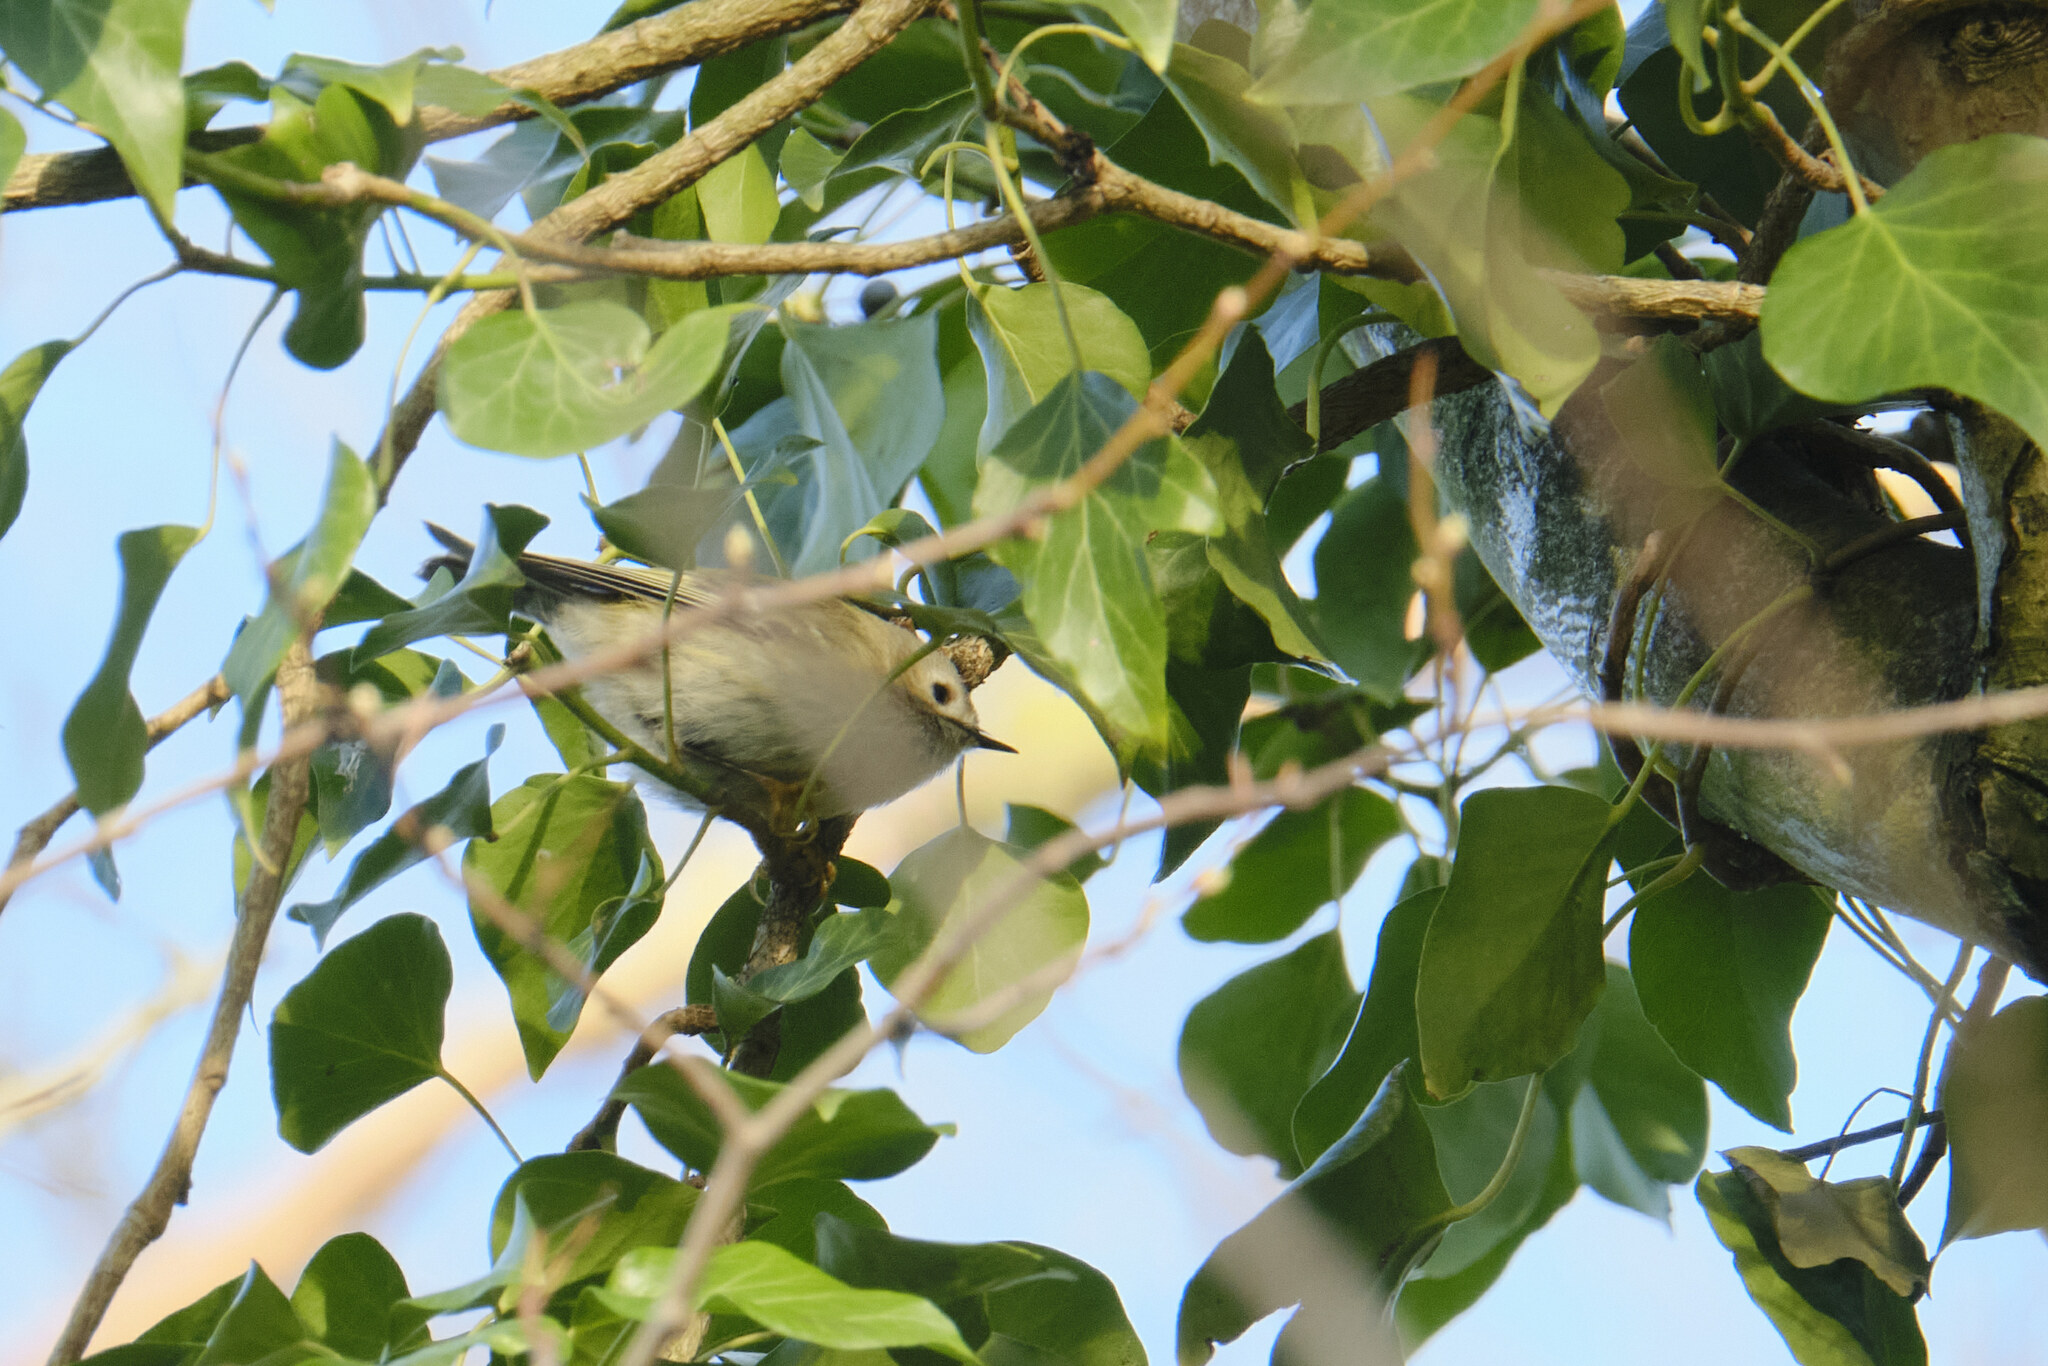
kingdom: Animalia
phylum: Chordata
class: Aves
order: Passeriformes
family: Regulidae
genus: Regulus
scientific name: Regulus regulus
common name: Goldcrest
